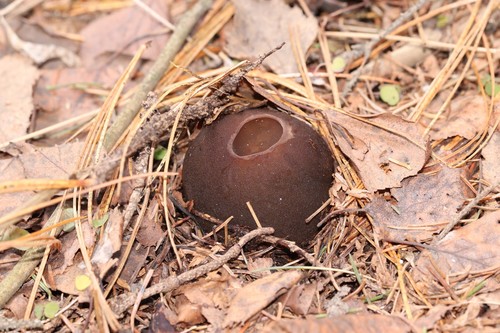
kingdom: Fungi
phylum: Ascomycota
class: Pezizomycetes
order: Pezizales
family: Sarcosomataceae
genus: Sarcosoma
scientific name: Sarcosoma globosum
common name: Charred-pancake cup
